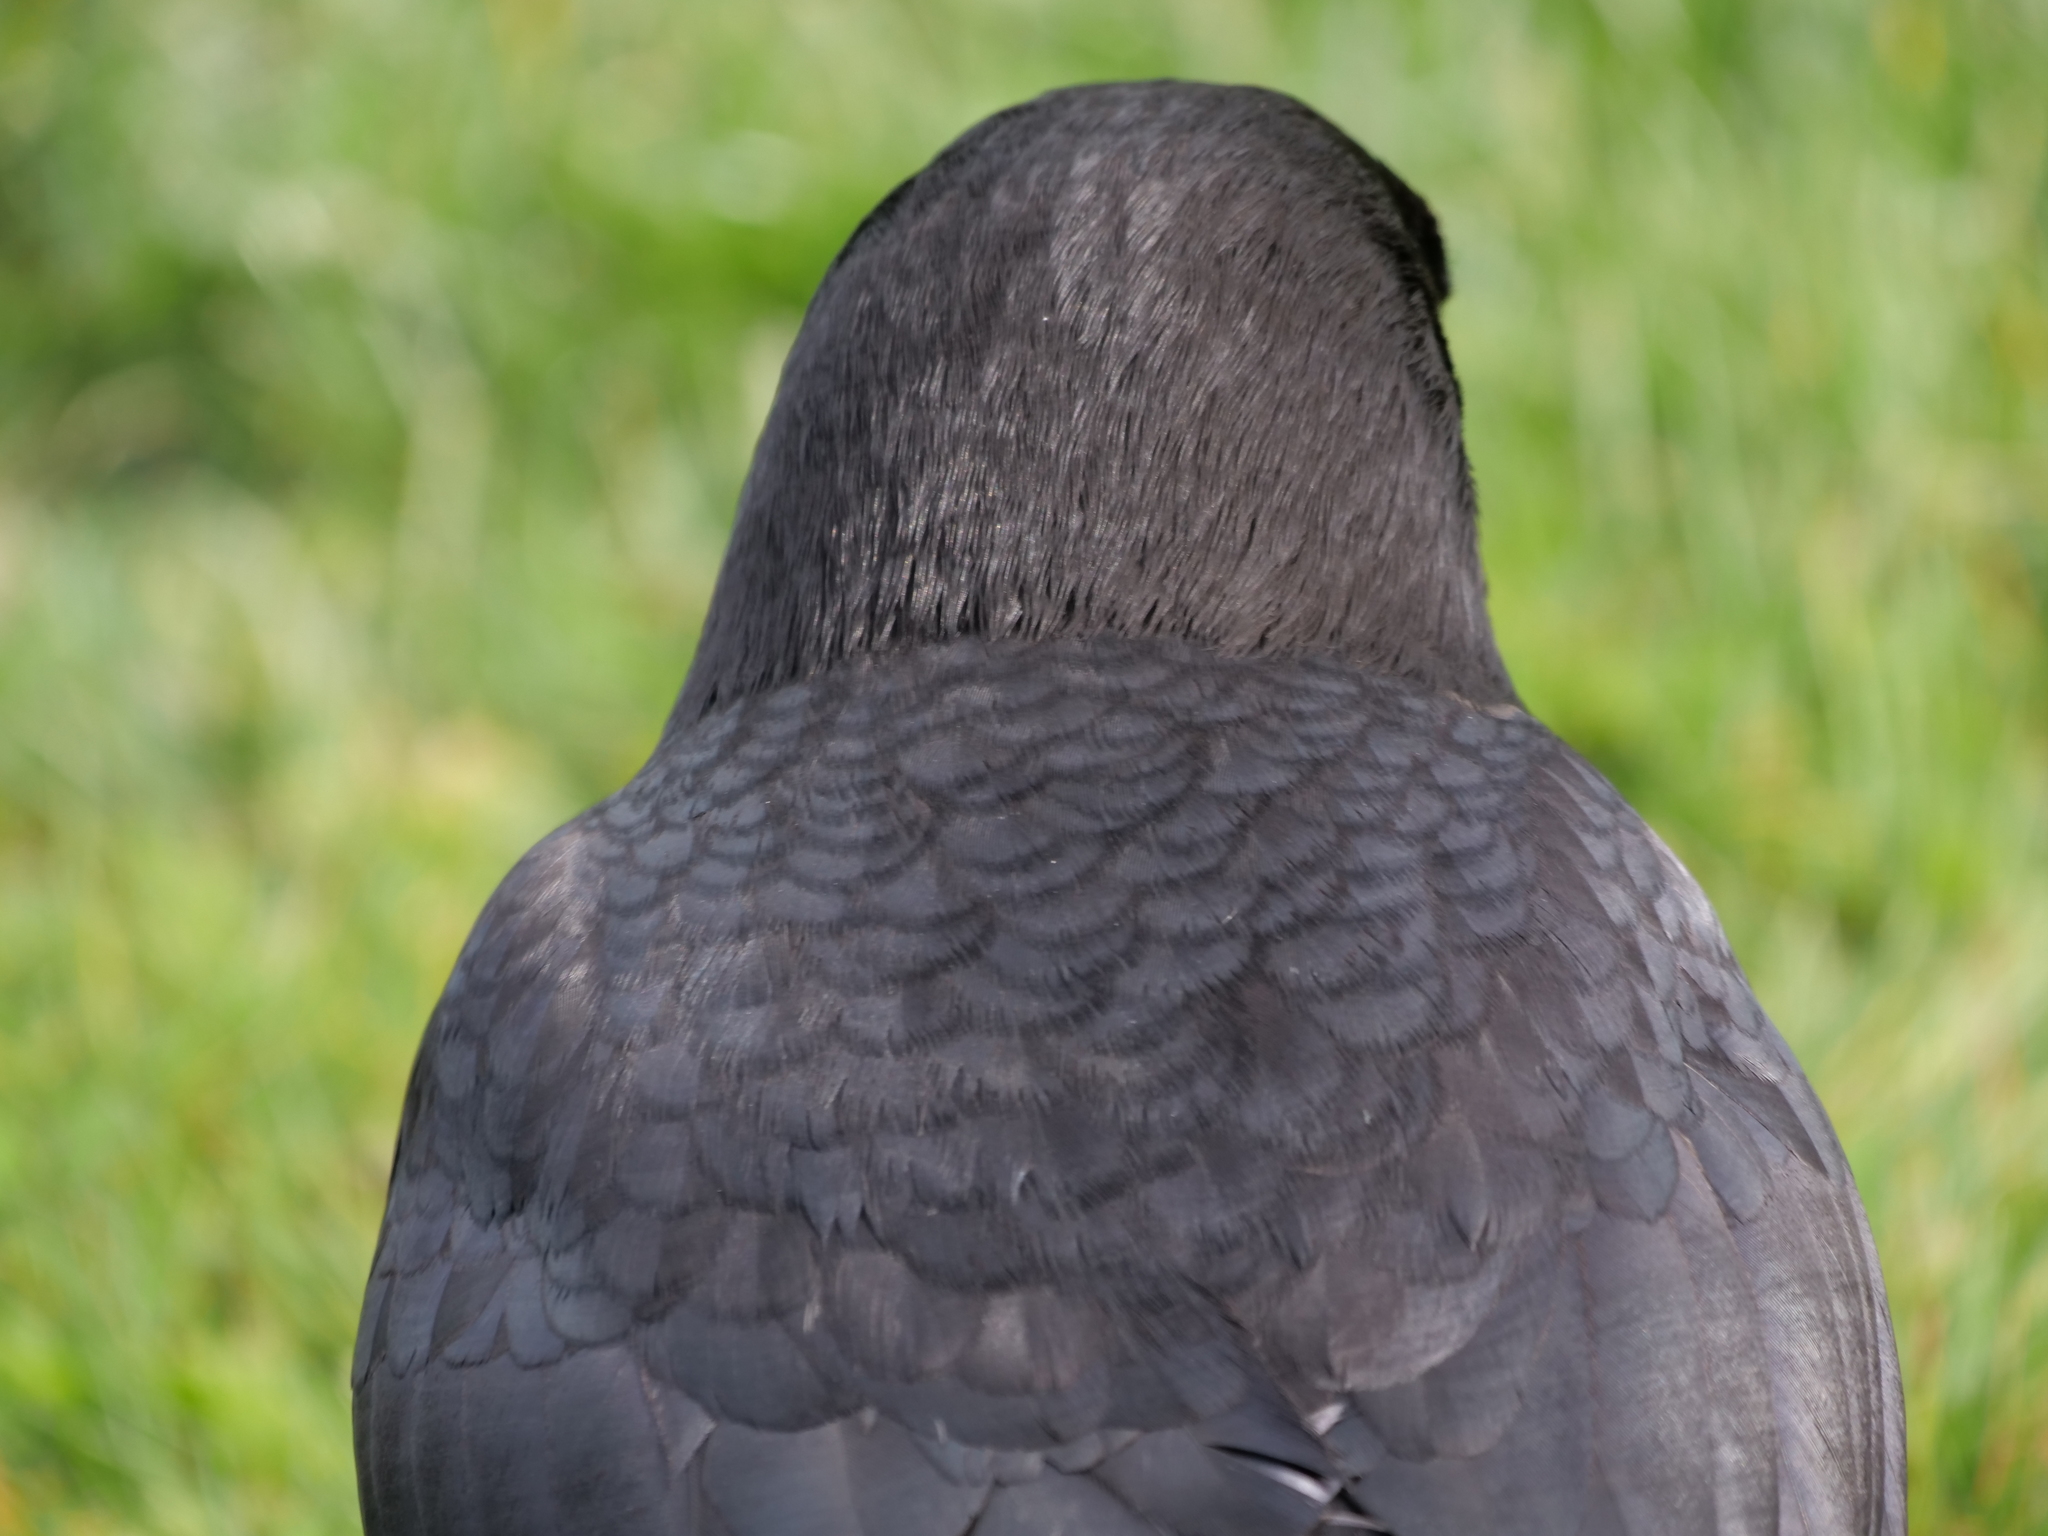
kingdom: Animalia
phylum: Chordata
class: Aves
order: Passeriformes
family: Corvidae
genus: Corvus
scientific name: Corvus brachyrhynchos
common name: American crow
